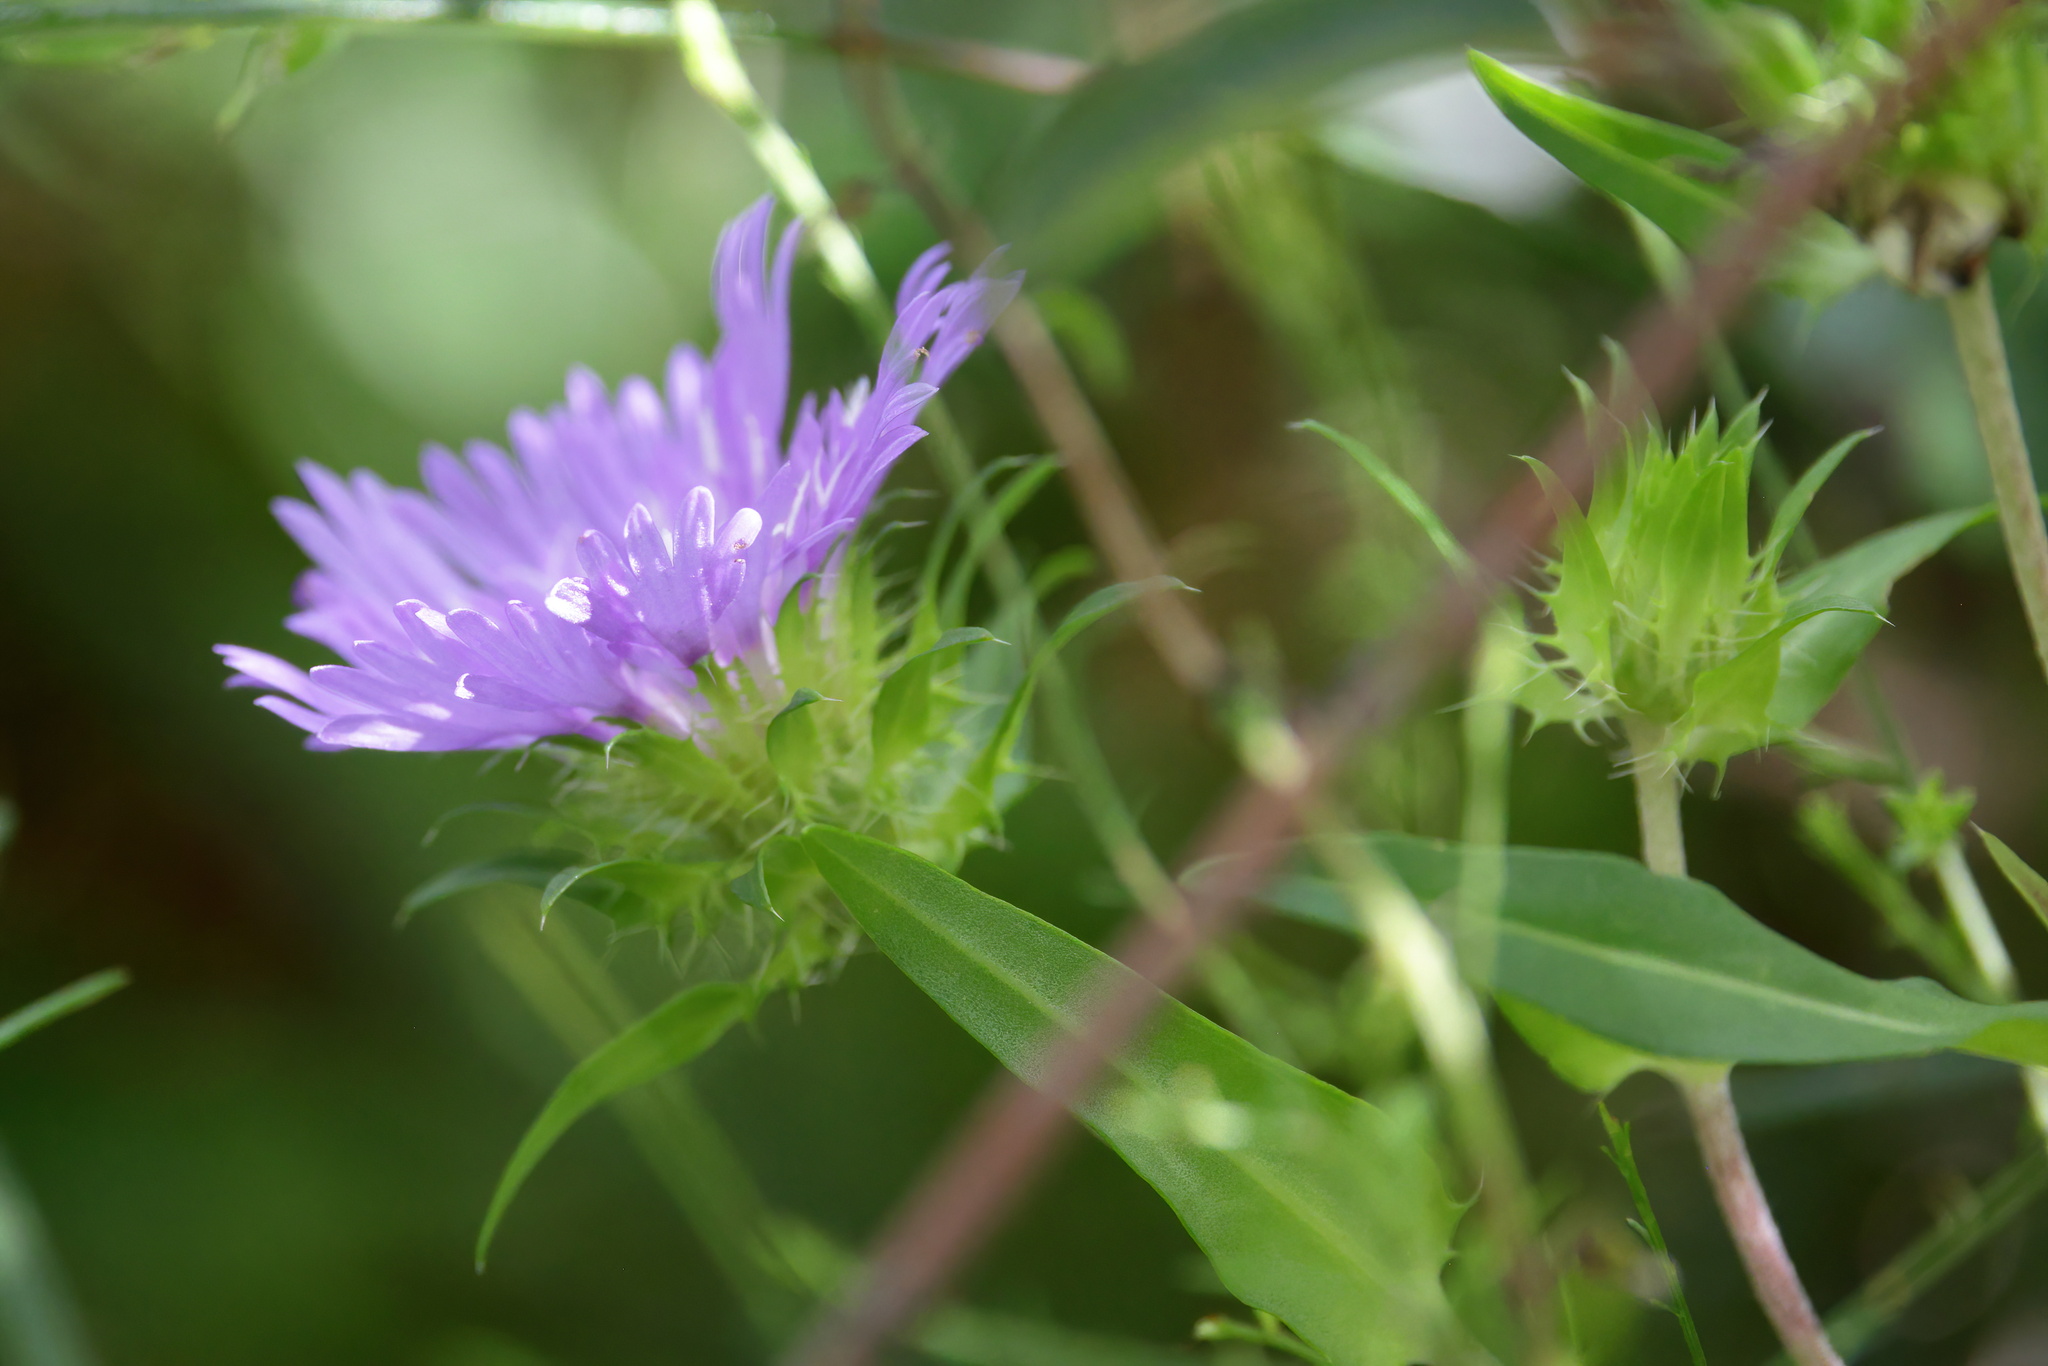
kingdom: Plantae
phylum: Tracheophyta
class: Magnoliopsida
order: Asterales
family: Asteraceae
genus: Stokesia
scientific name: Stokesia laevis
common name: Stokes'-aster
